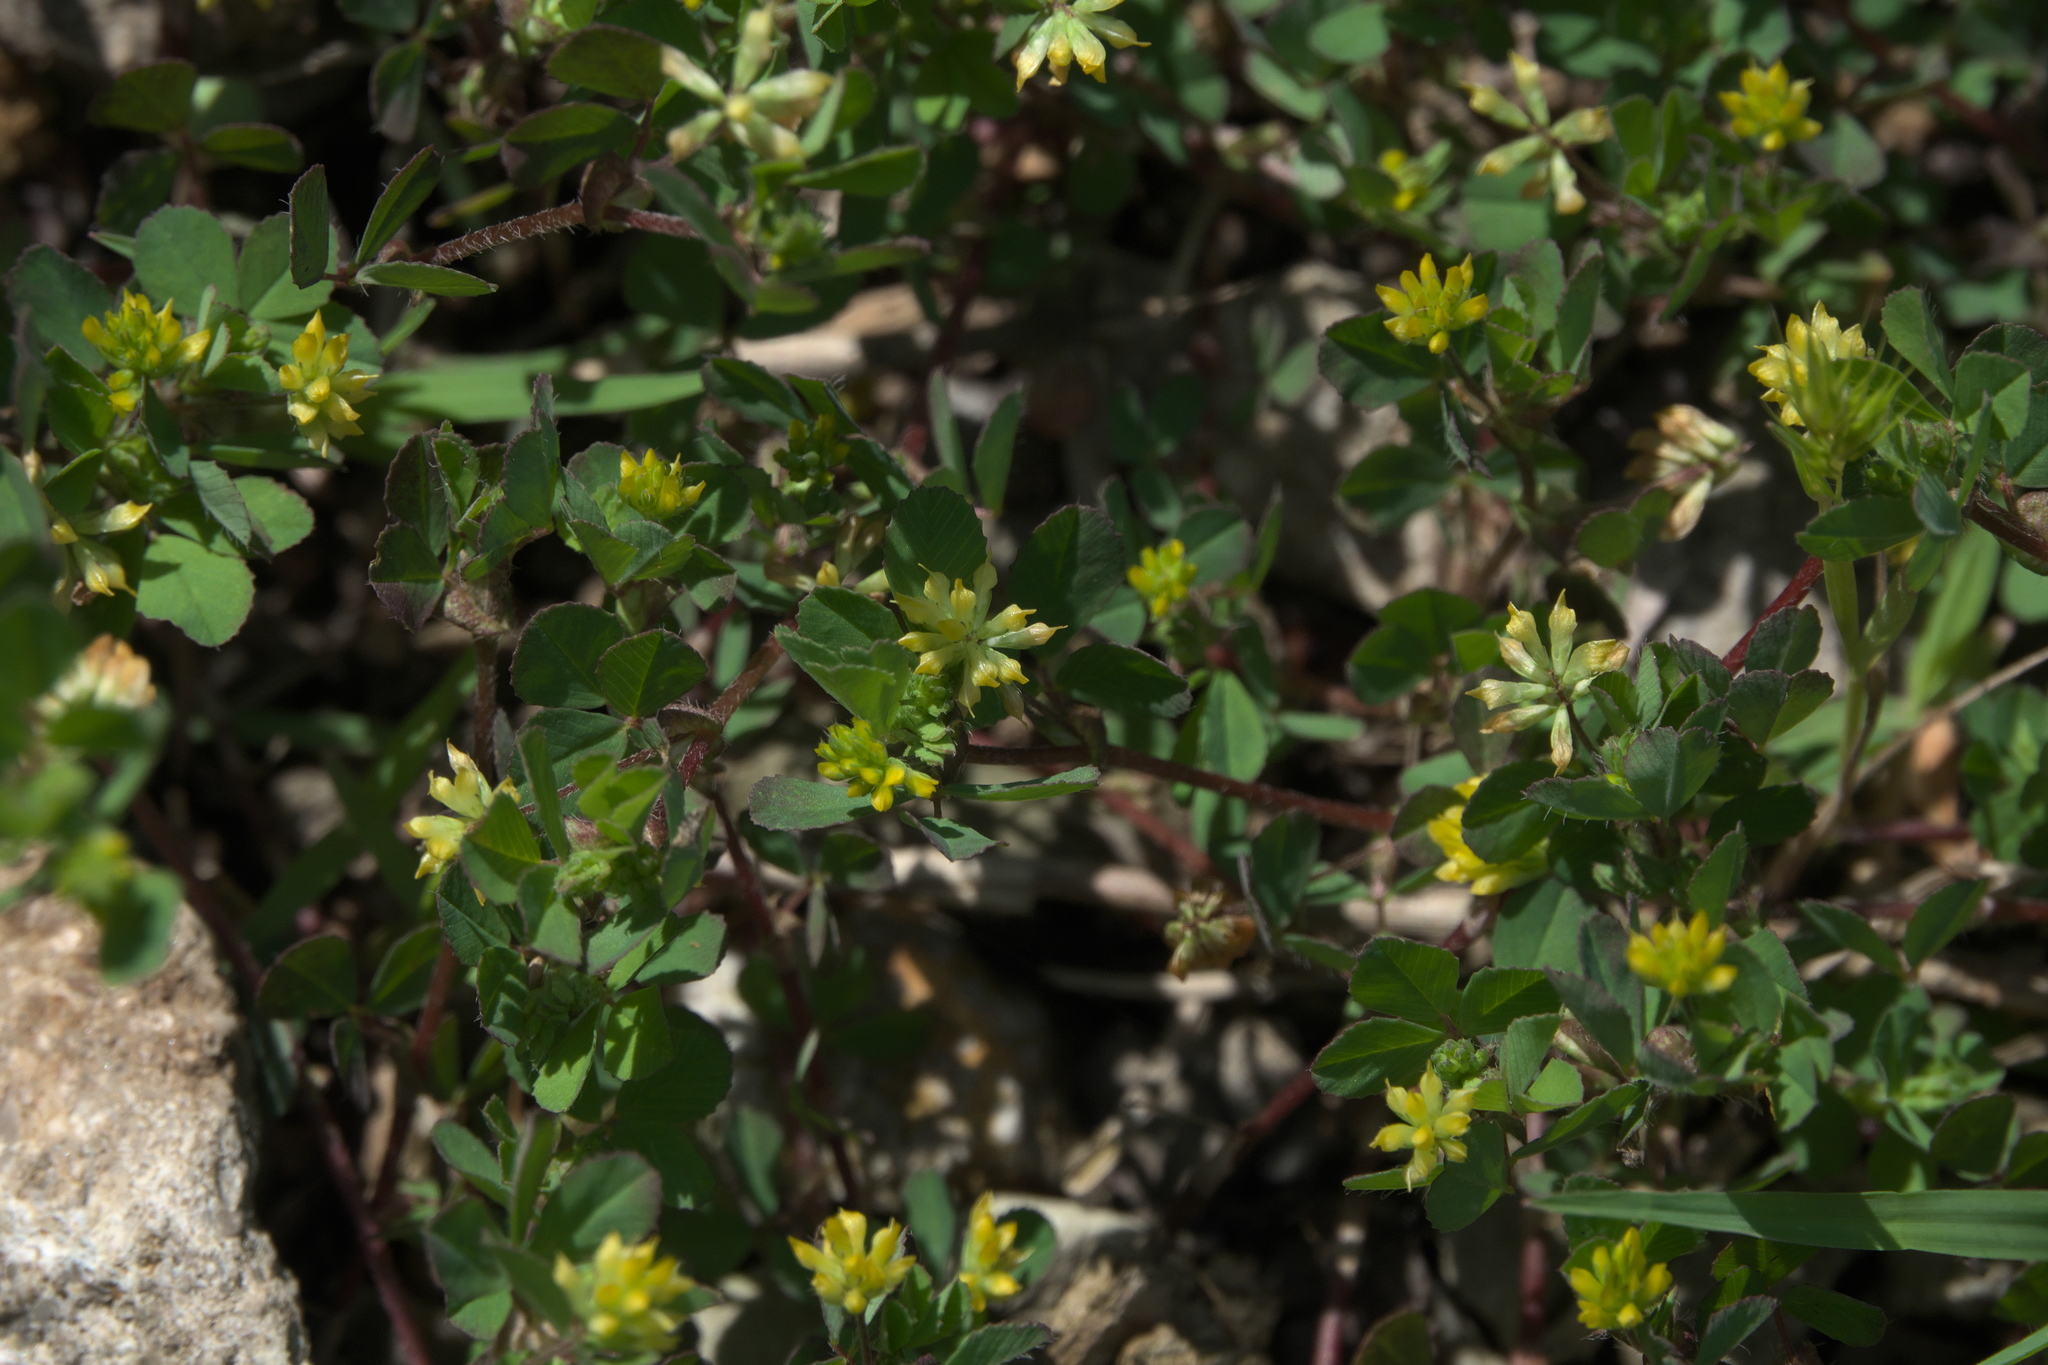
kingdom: Plantae
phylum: Tracheophyta
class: Magnoliopsida
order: Fabales
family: Fabaceae
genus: Trifolium
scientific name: Trifolium dubium
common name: Suckling clover
